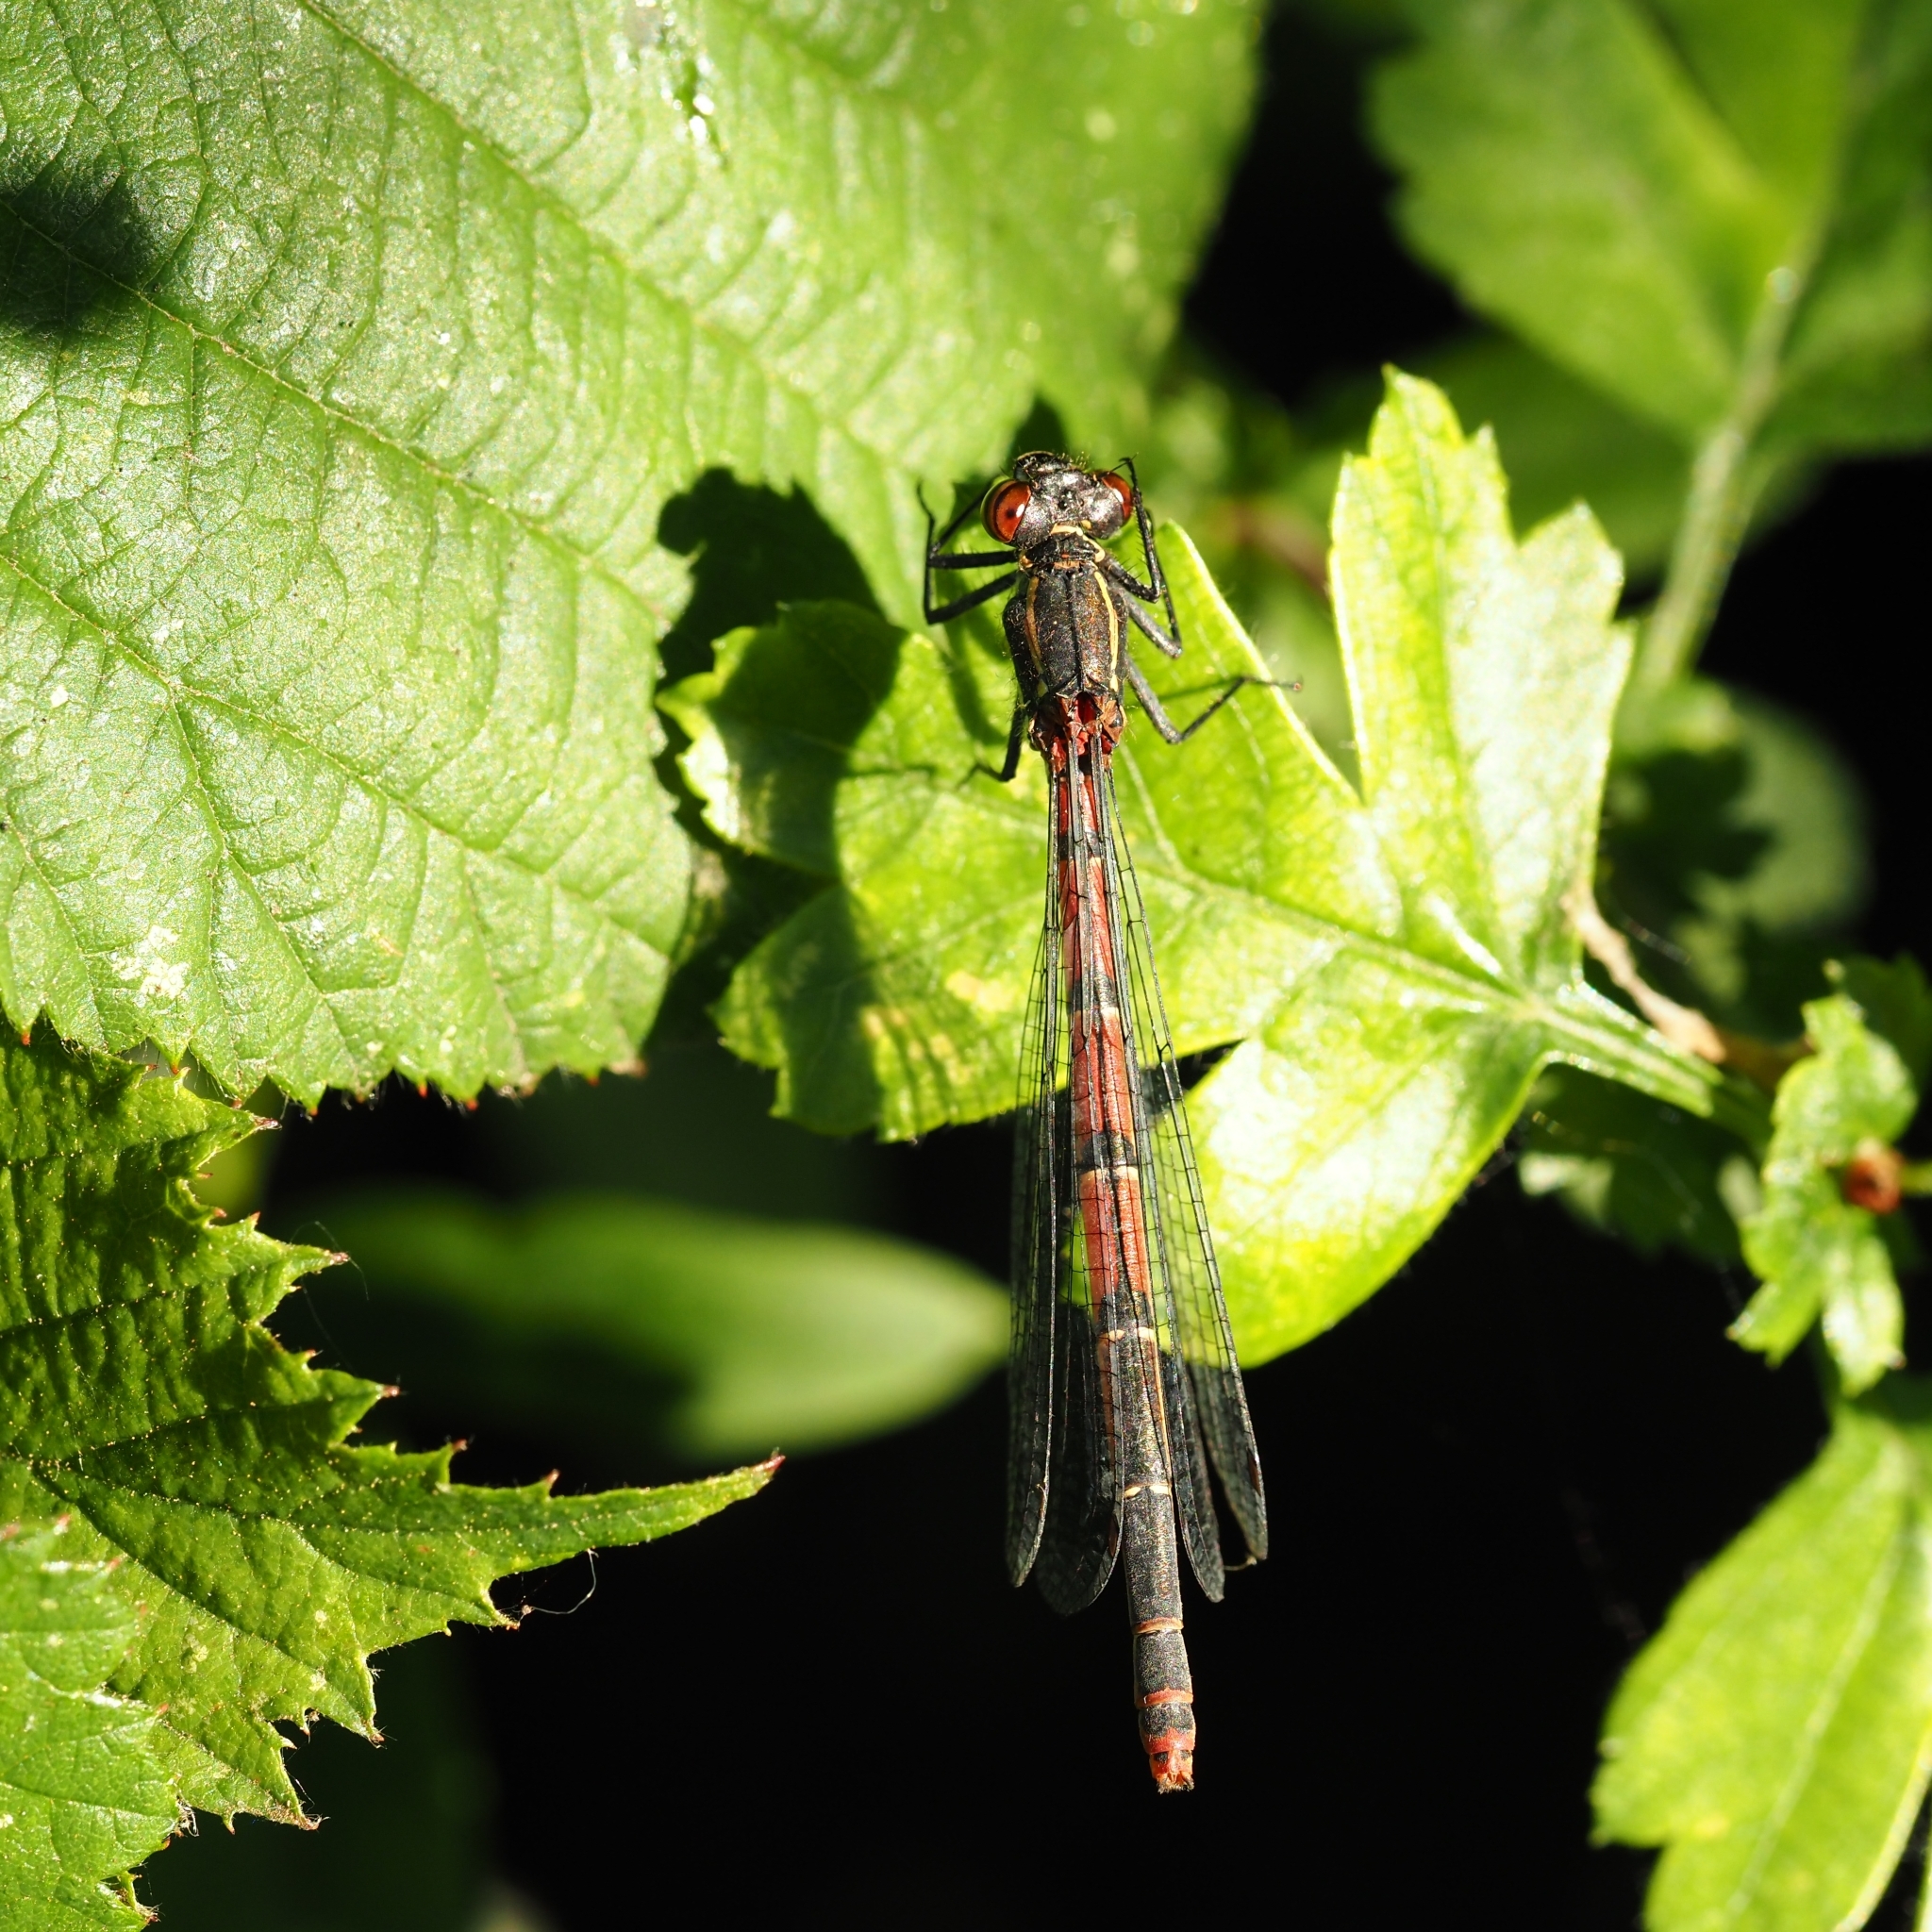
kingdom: Animalia
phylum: Arthropoda
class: Insecta
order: Odonata
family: Coenagrionidae
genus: Pyrrhosoma
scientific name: Pyrrhosoma nymphula
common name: Large red damsel
